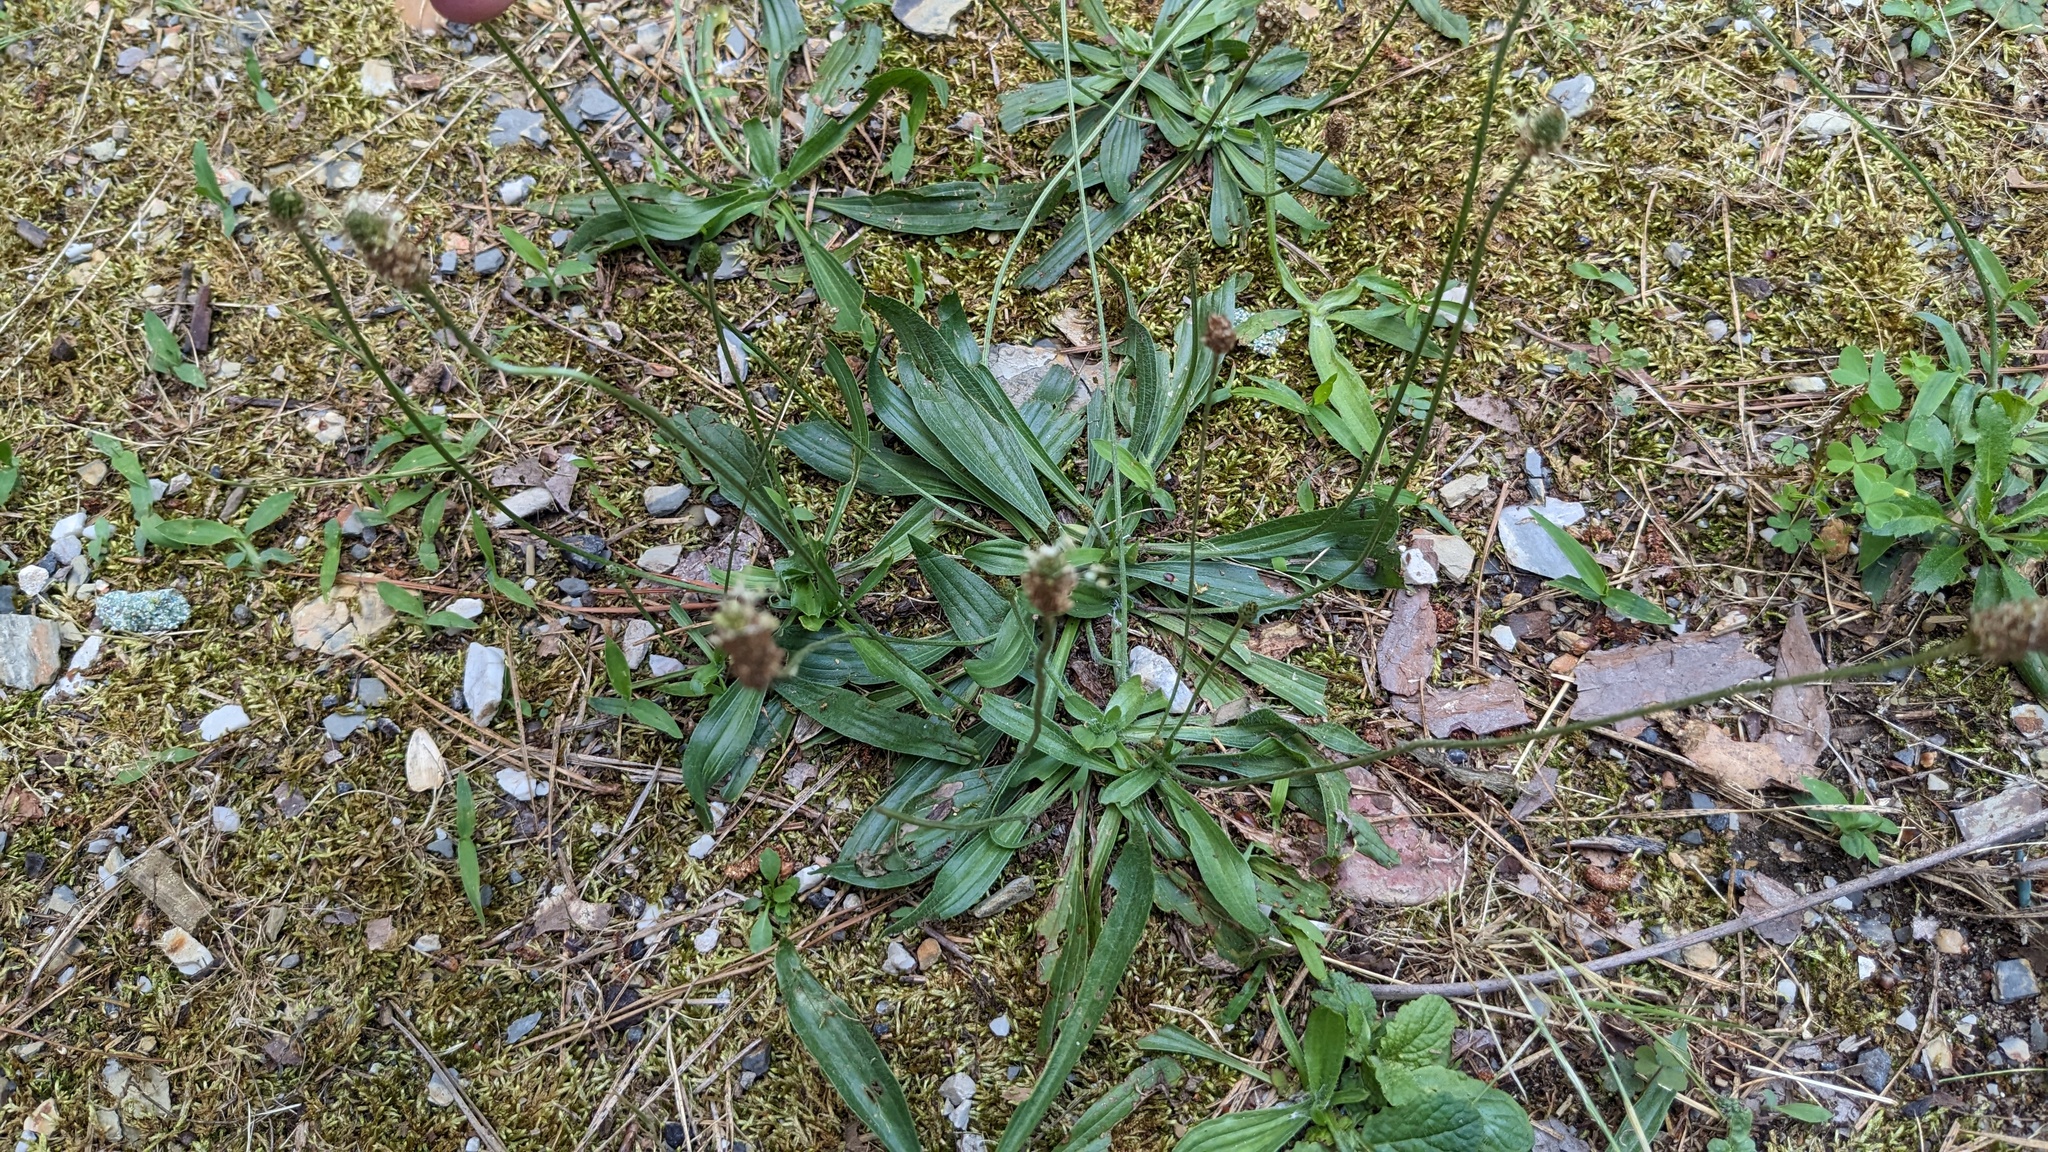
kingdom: Plantae
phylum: Tracheophyta
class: Magnoliopsida
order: Lamiales
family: Plantaginaceae
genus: Plantago
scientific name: Plantago lanceolata
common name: Ribwort plantain
